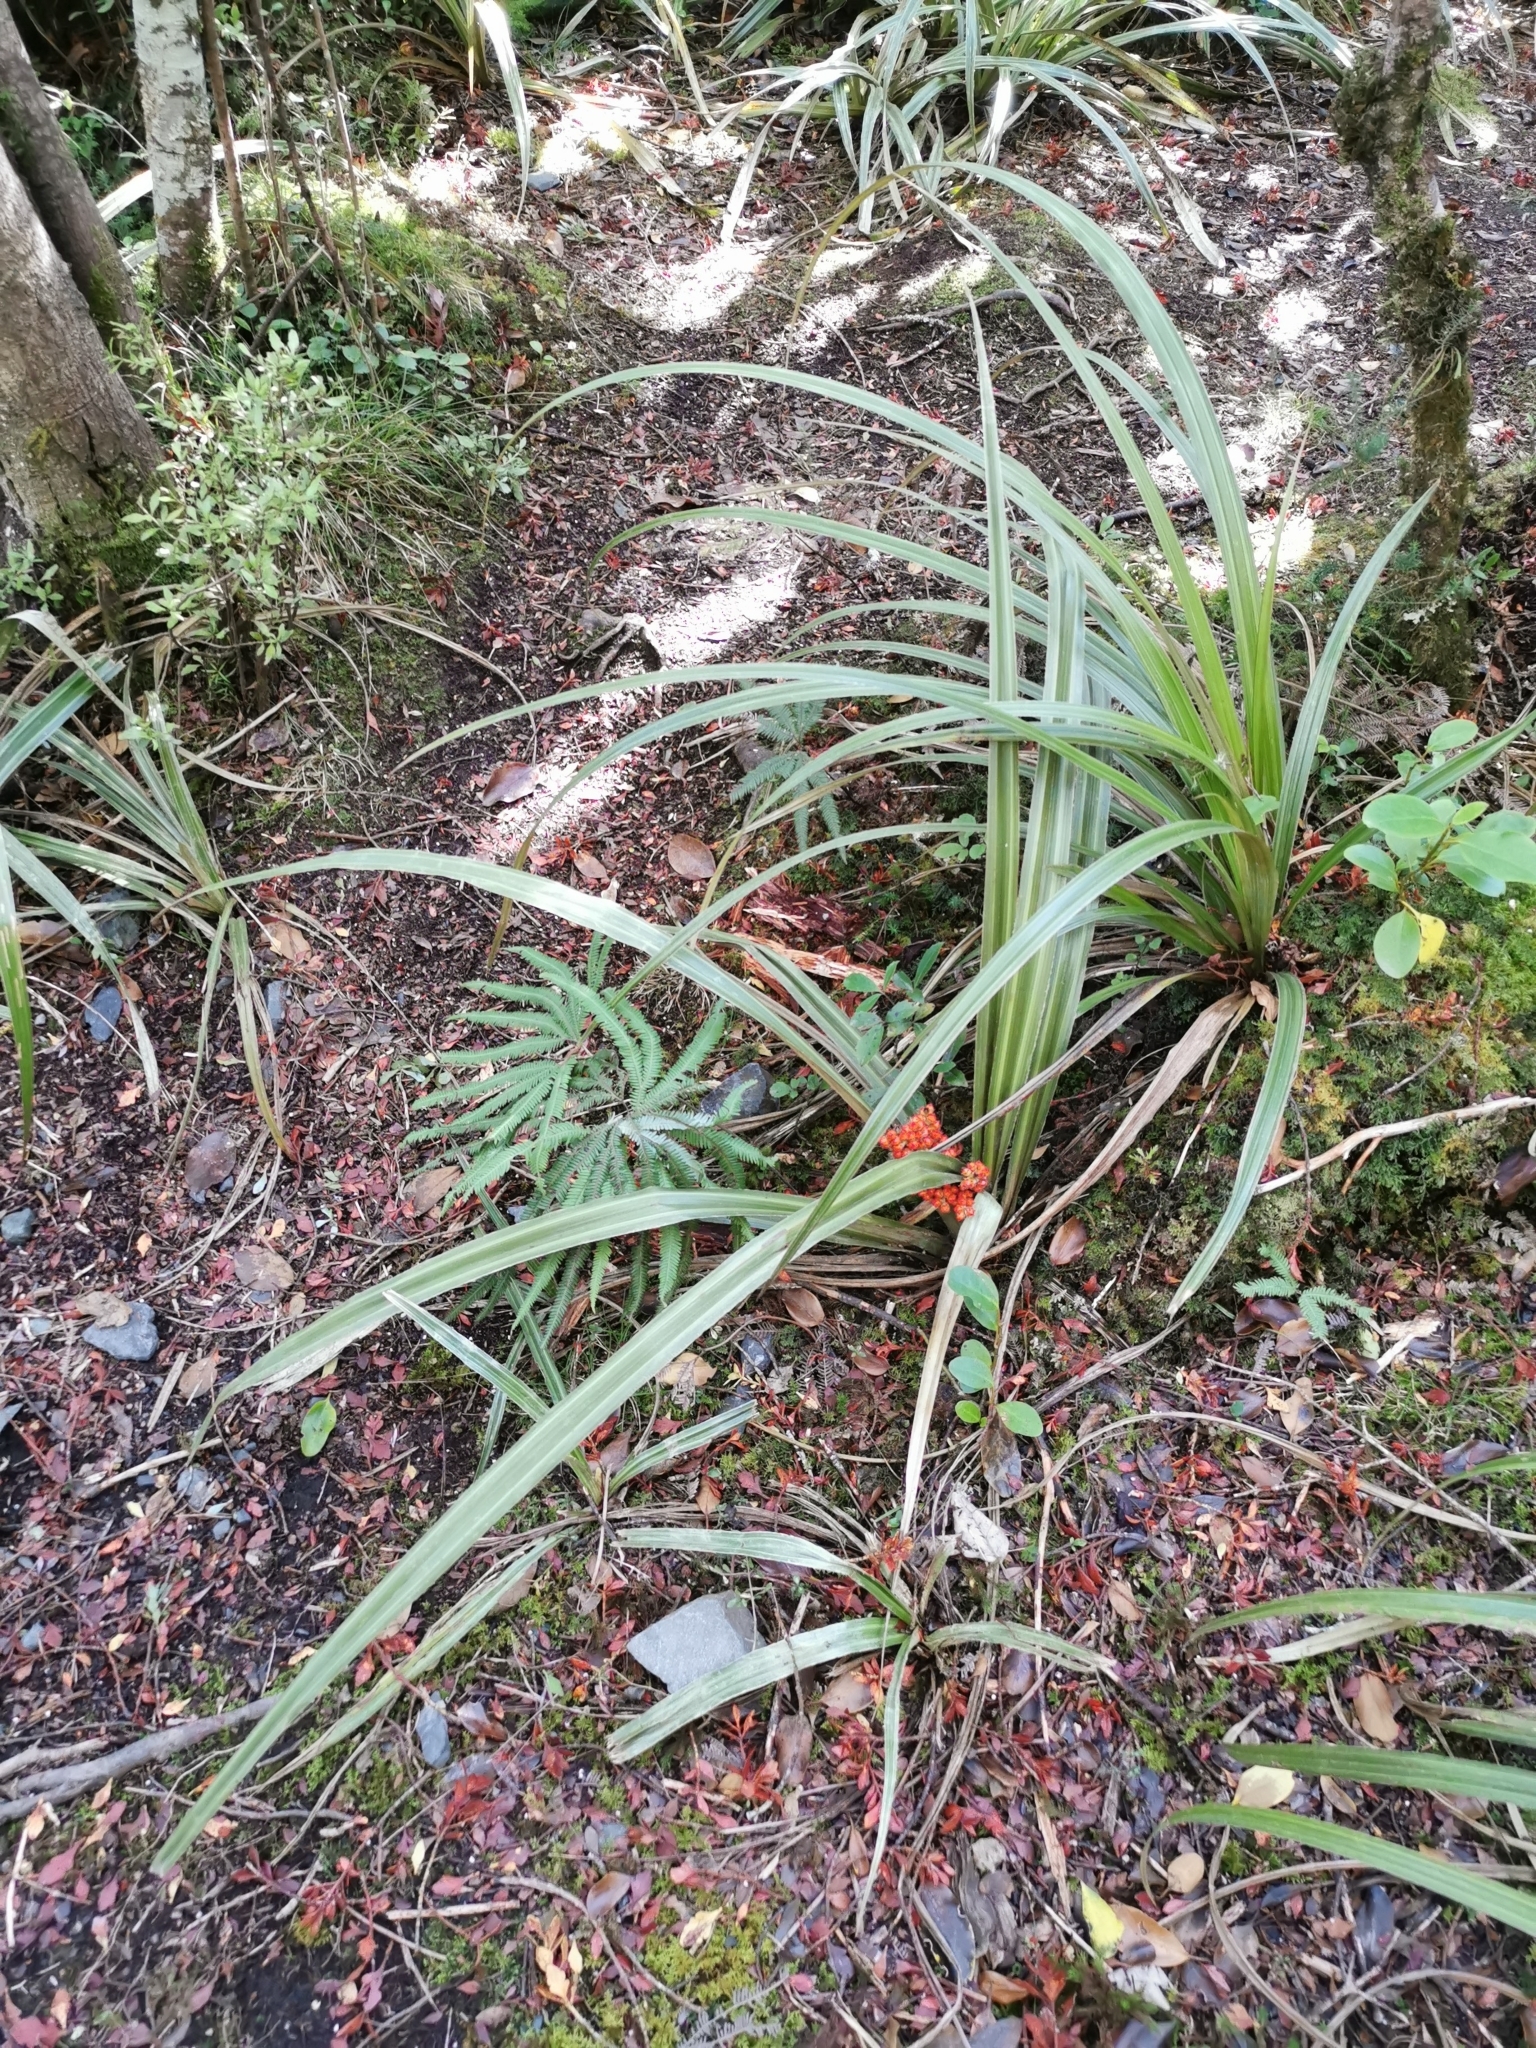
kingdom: Plantae
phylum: Tracheophyta
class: Liliopsida
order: Asparagales
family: Asteliaceae
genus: Astelia
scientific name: Astelia fragrans
